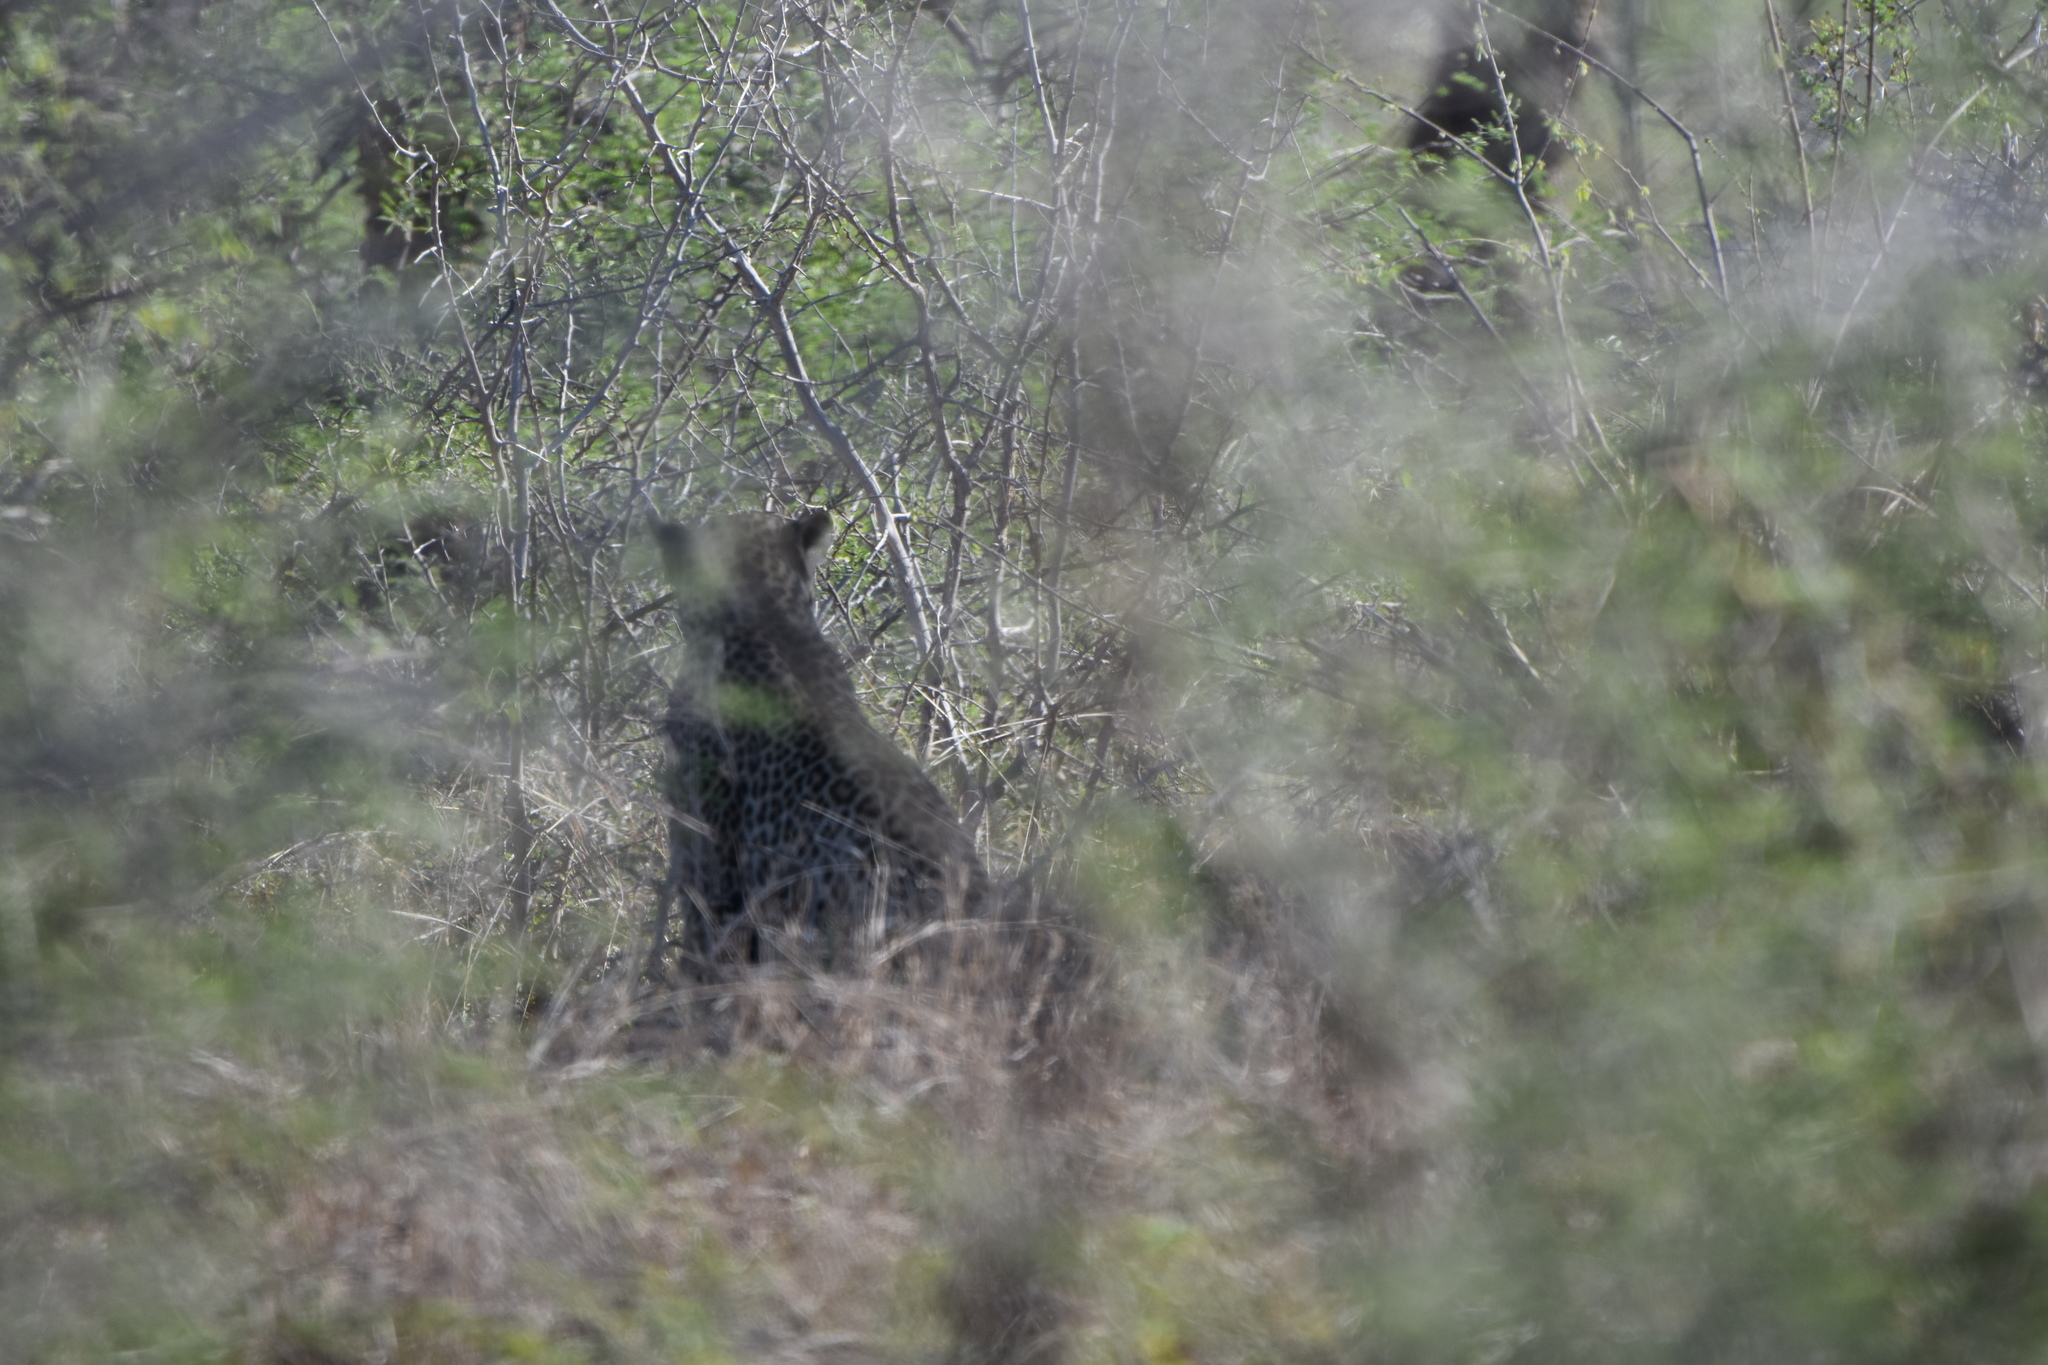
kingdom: Animalia
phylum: Chordata
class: Mammalia
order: Carnivora
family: Felidae
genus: Panthera
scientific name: Panthera pardus
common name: Leopard
